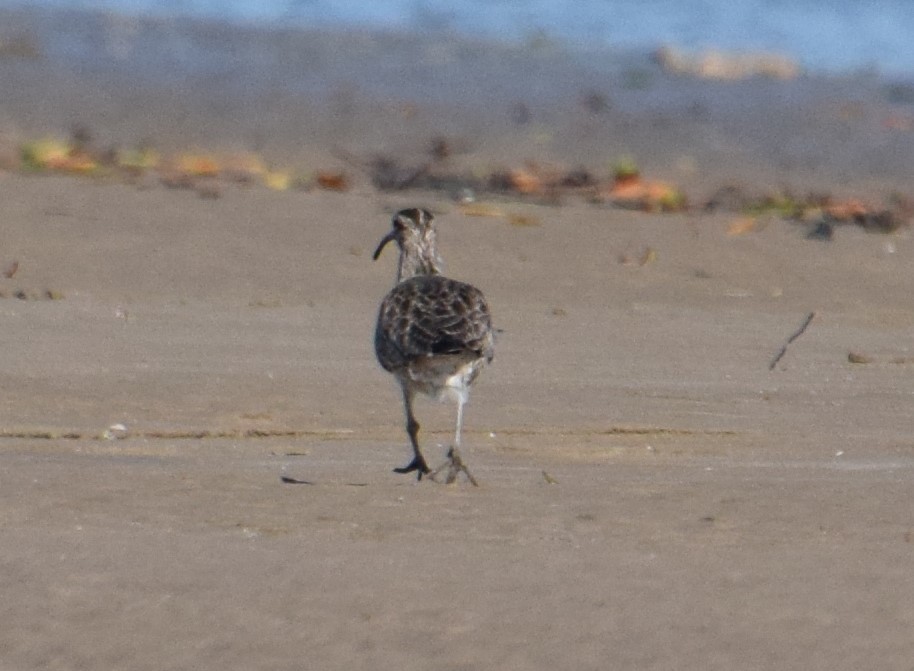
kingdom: Animalia
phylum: Chordata
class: Aves
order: Charadriiformes
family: Scolopacidae
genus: Numenius
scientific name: Numenius phaeopus
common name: Whimbrel
